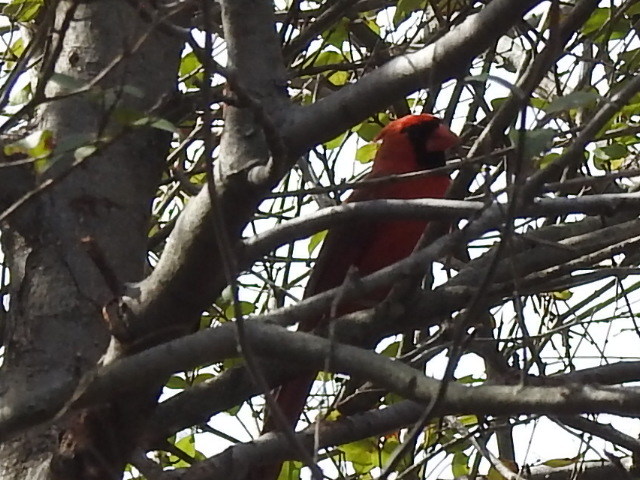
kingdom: Animalia
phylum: Chordata
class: Aves
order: Passeriformes
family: Cardinalidae
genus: Cardinalis
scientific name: Cardinalis cardinalis
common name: Northern cardinal
